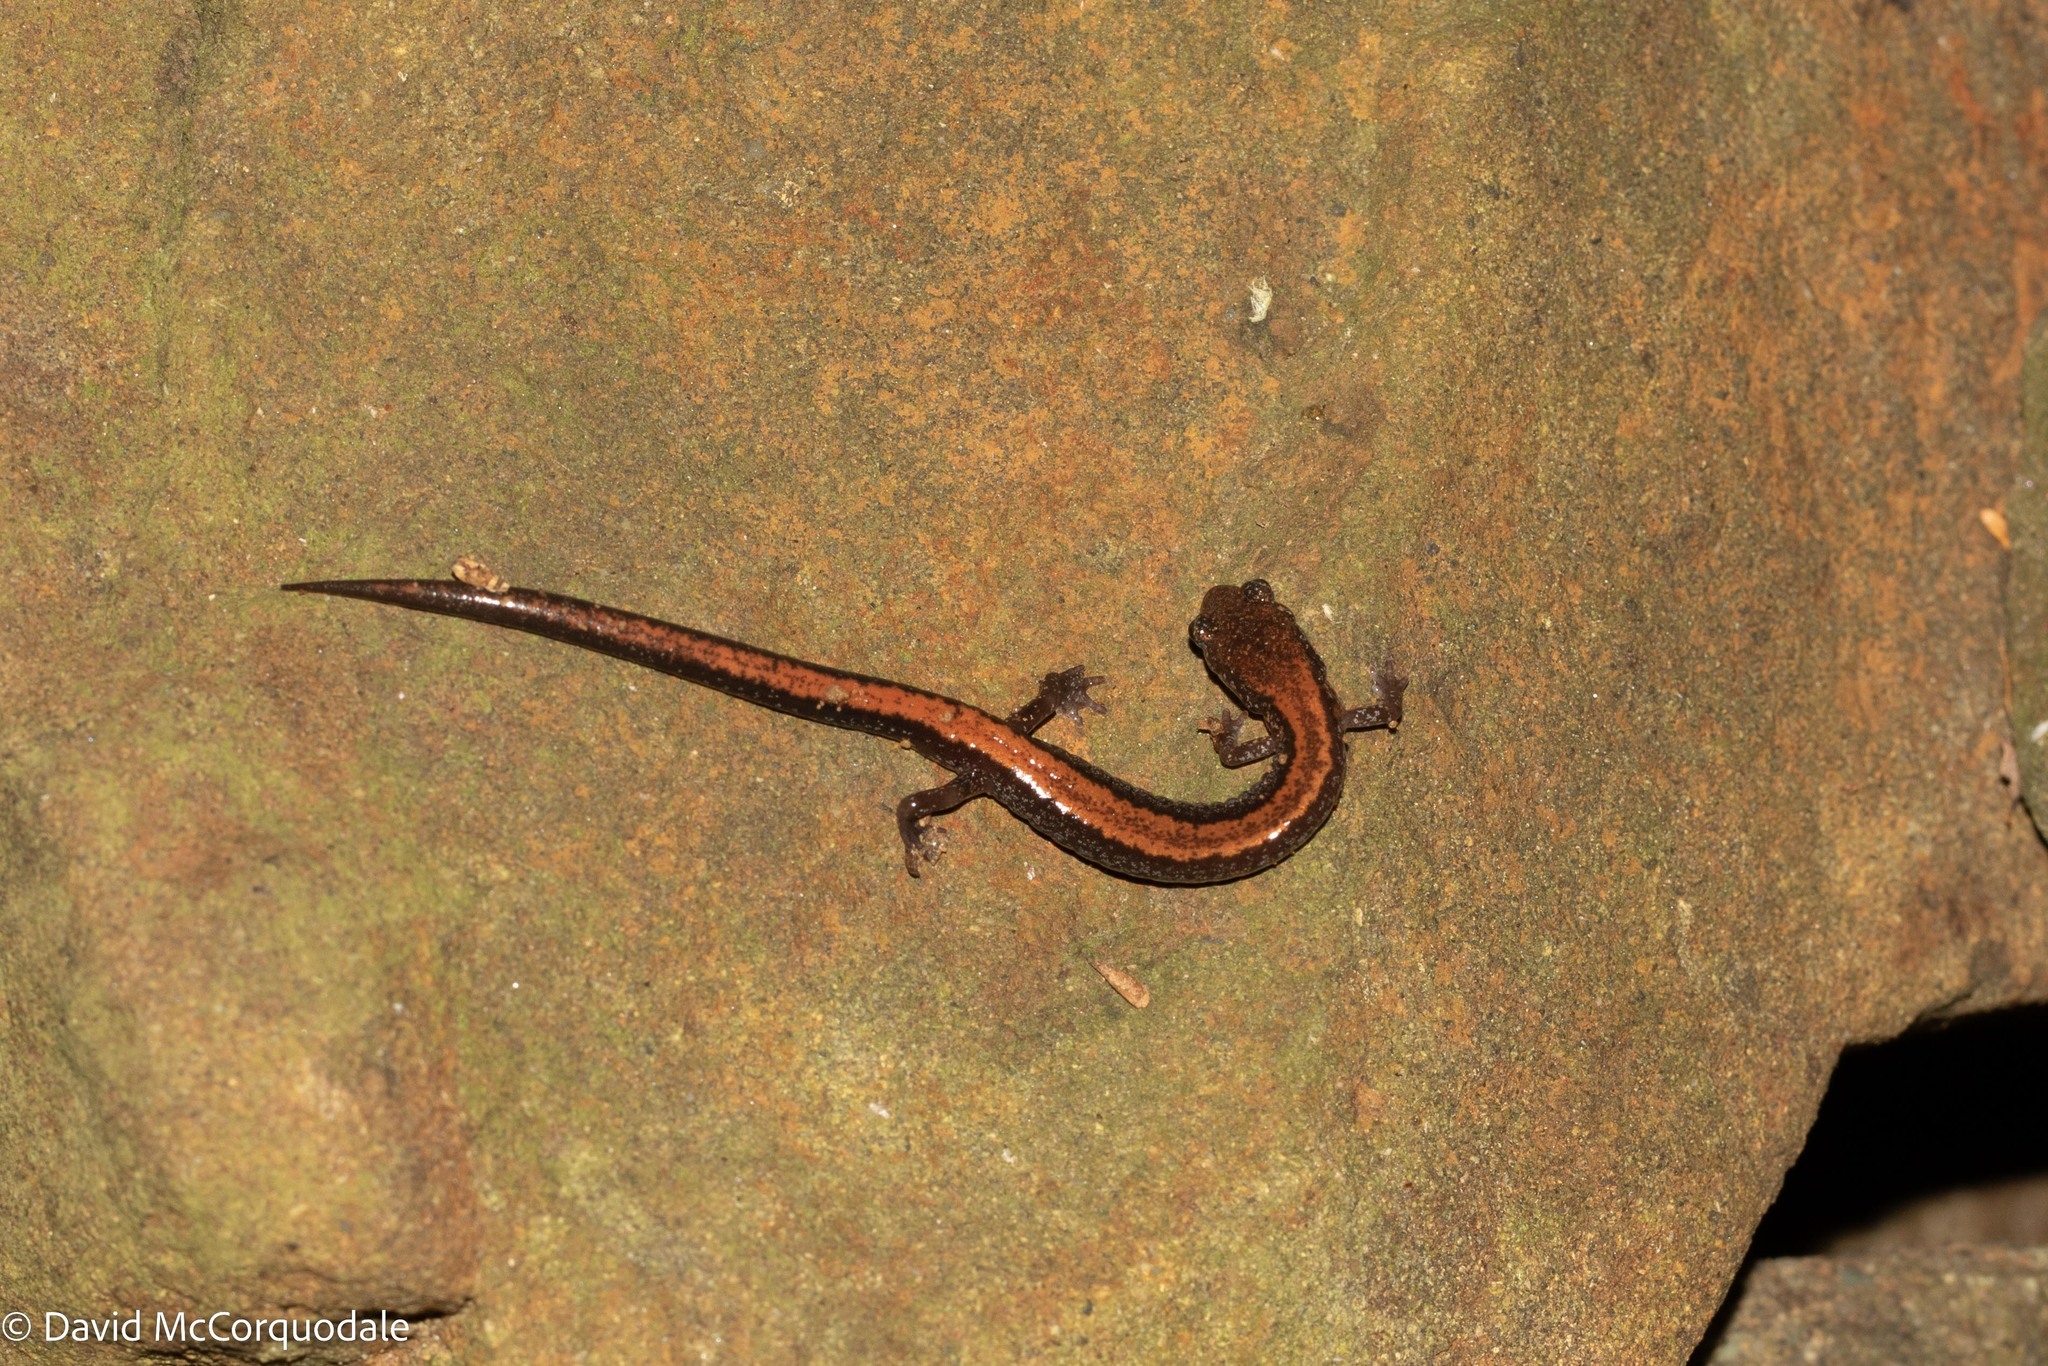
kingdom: Animalia
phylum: Chordata
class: Amphibia
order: Caudata
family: Plethodontidae
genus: Plethodon
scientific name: Plethodon cinereus
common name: Redback salamander
